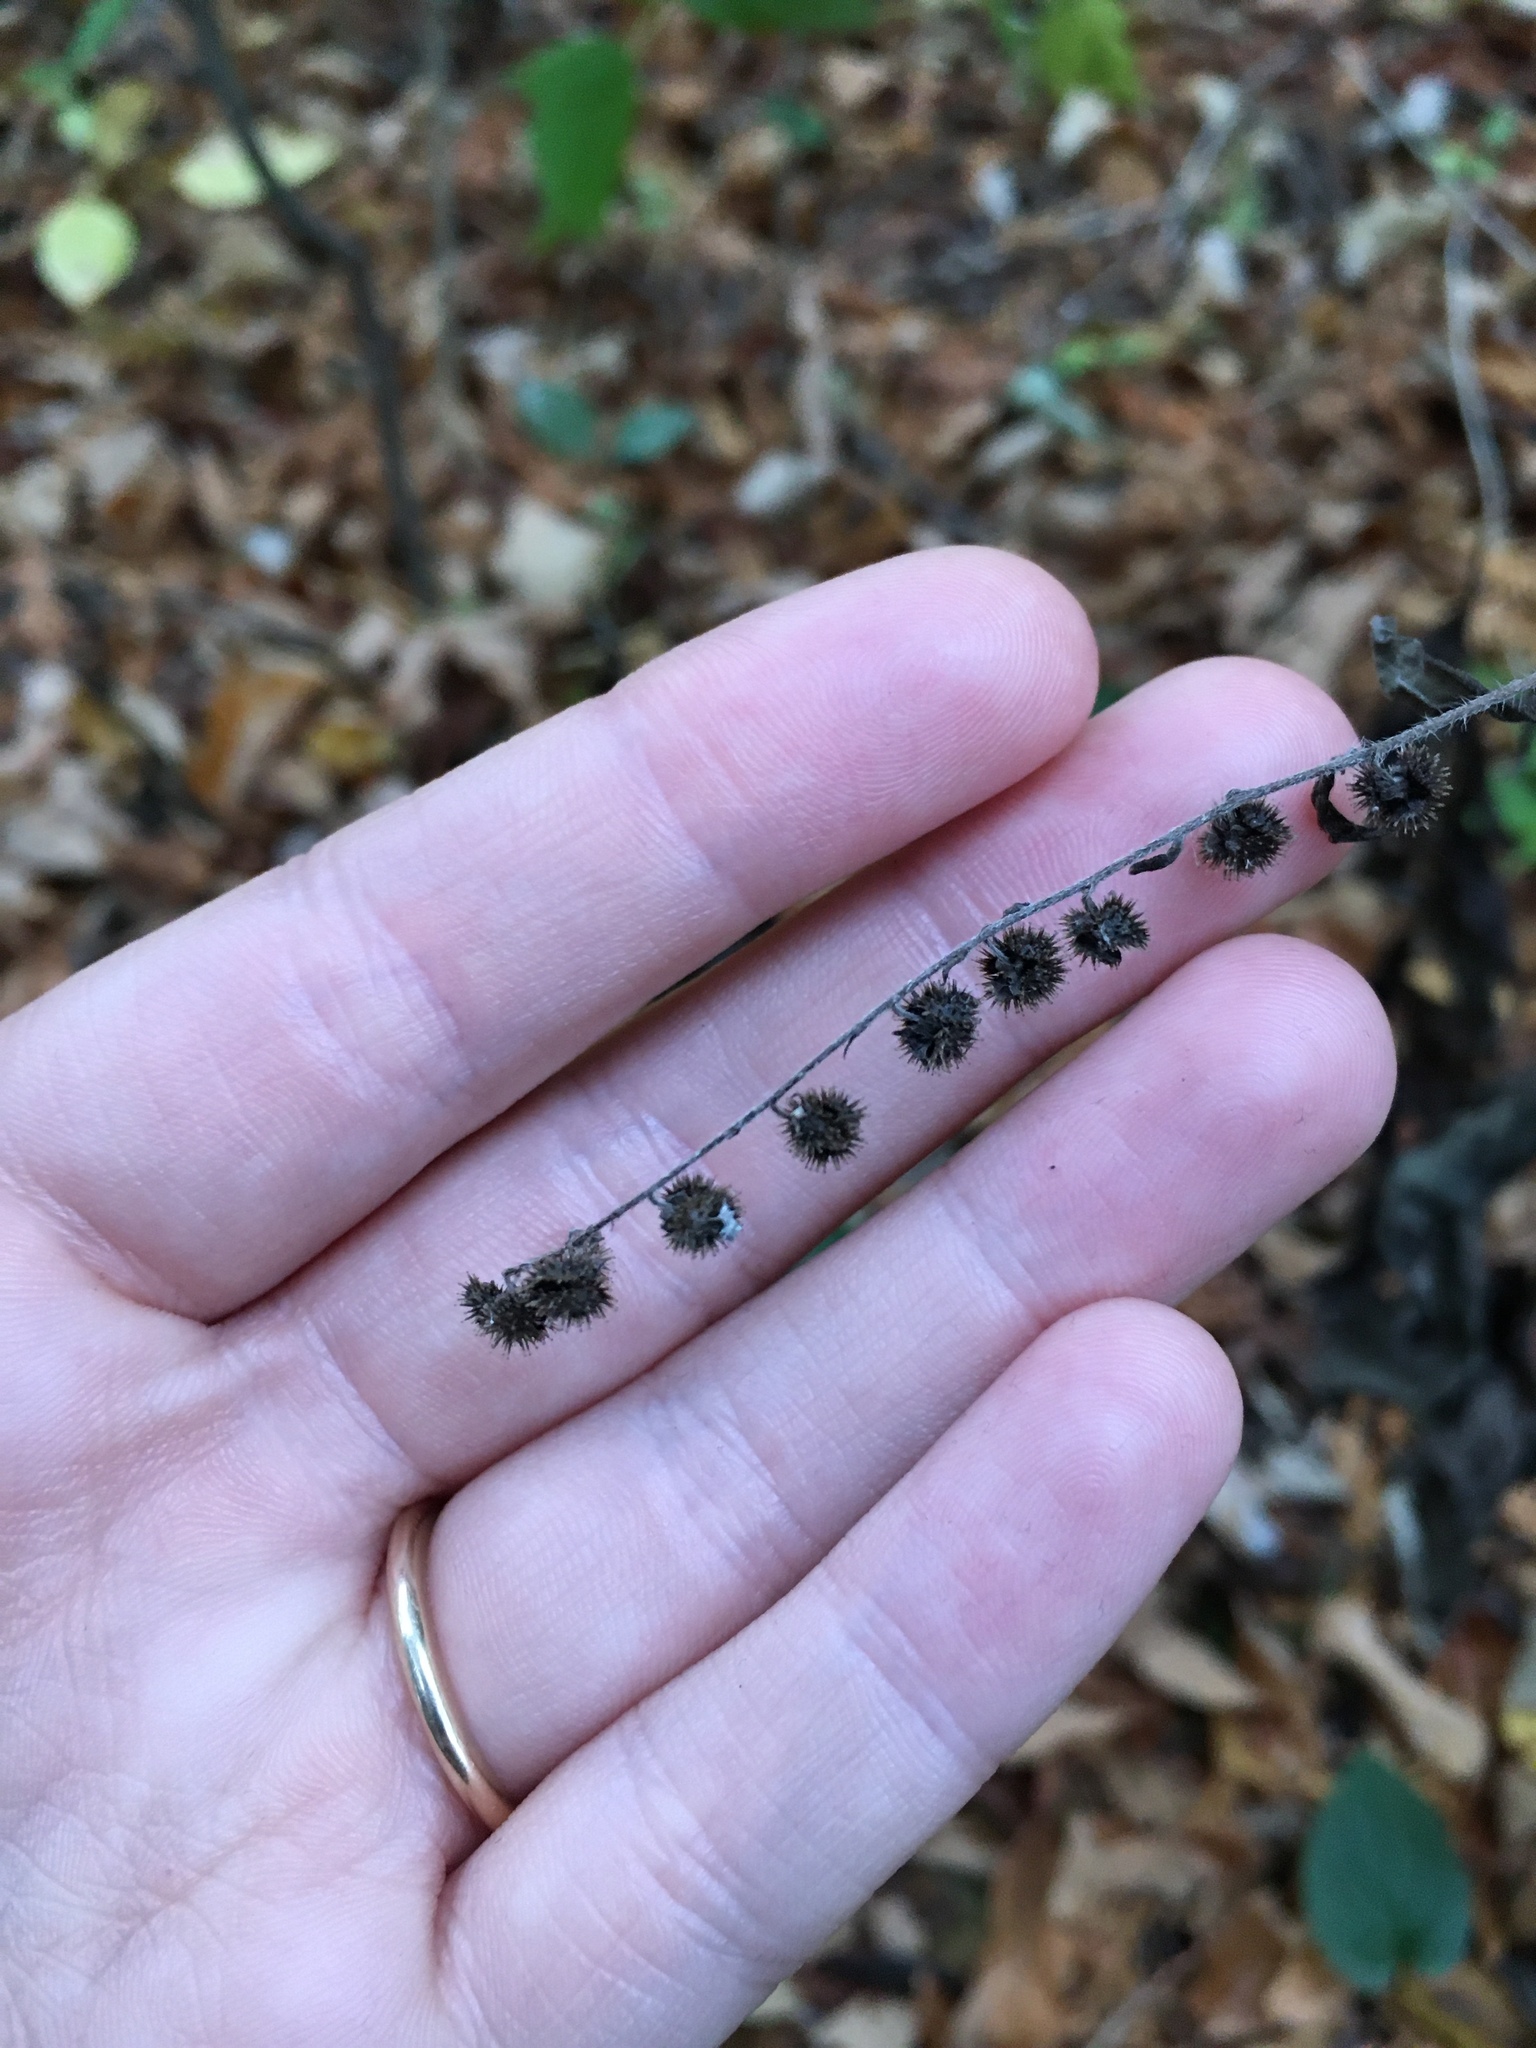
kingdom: Plantae
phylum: Tracheophyta
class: Magnoliopsida
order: Boraginales
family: Boraginaceae
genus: Hackelia
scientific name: Hackelia virginiana
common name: Beggar's-lice
